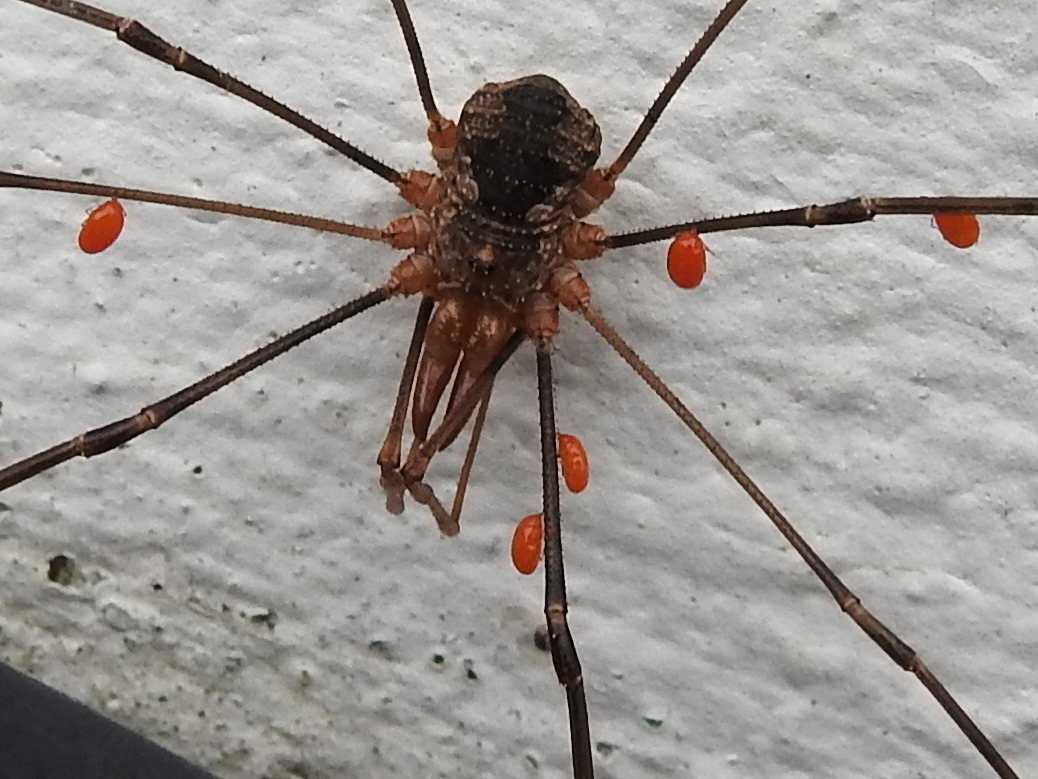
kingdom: Animalia
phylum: Arthropoda
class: Arachnida
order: Opiliones
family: Phalangiidae
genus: Phalangium
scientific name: Phalangium opilio
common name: Daddy longleg
